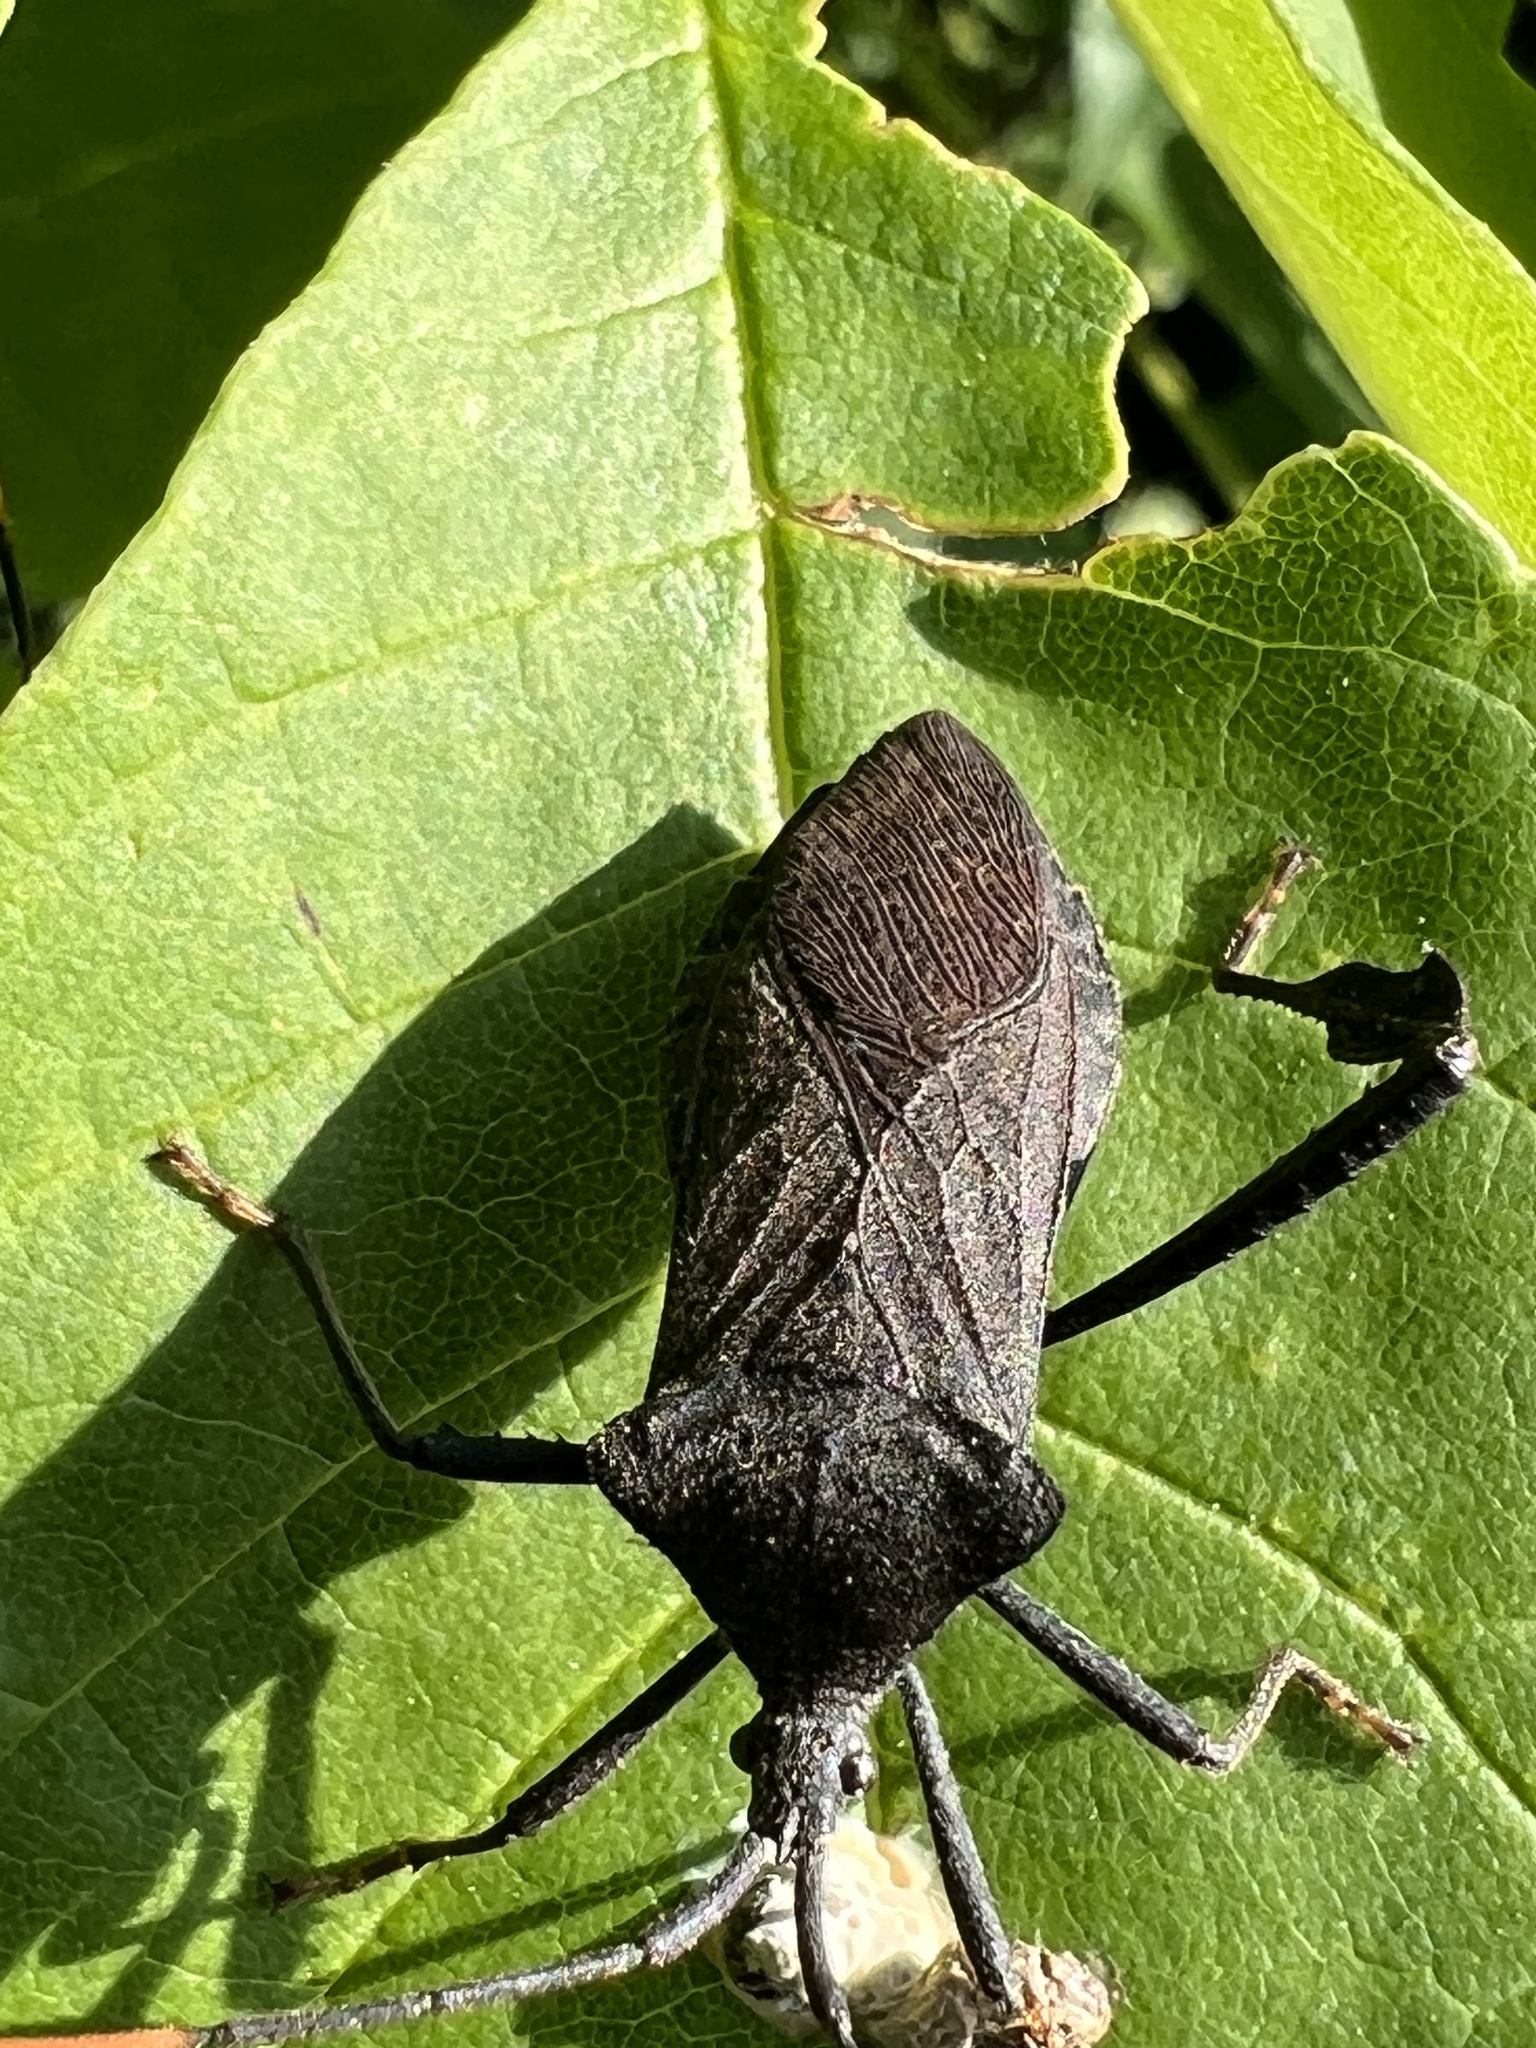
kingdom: Animalia
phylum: Arthropoda
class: Insecta
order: Hemiptera
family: Coreidae
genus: Acanthocephala
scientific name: Acanthocephala terminalis
